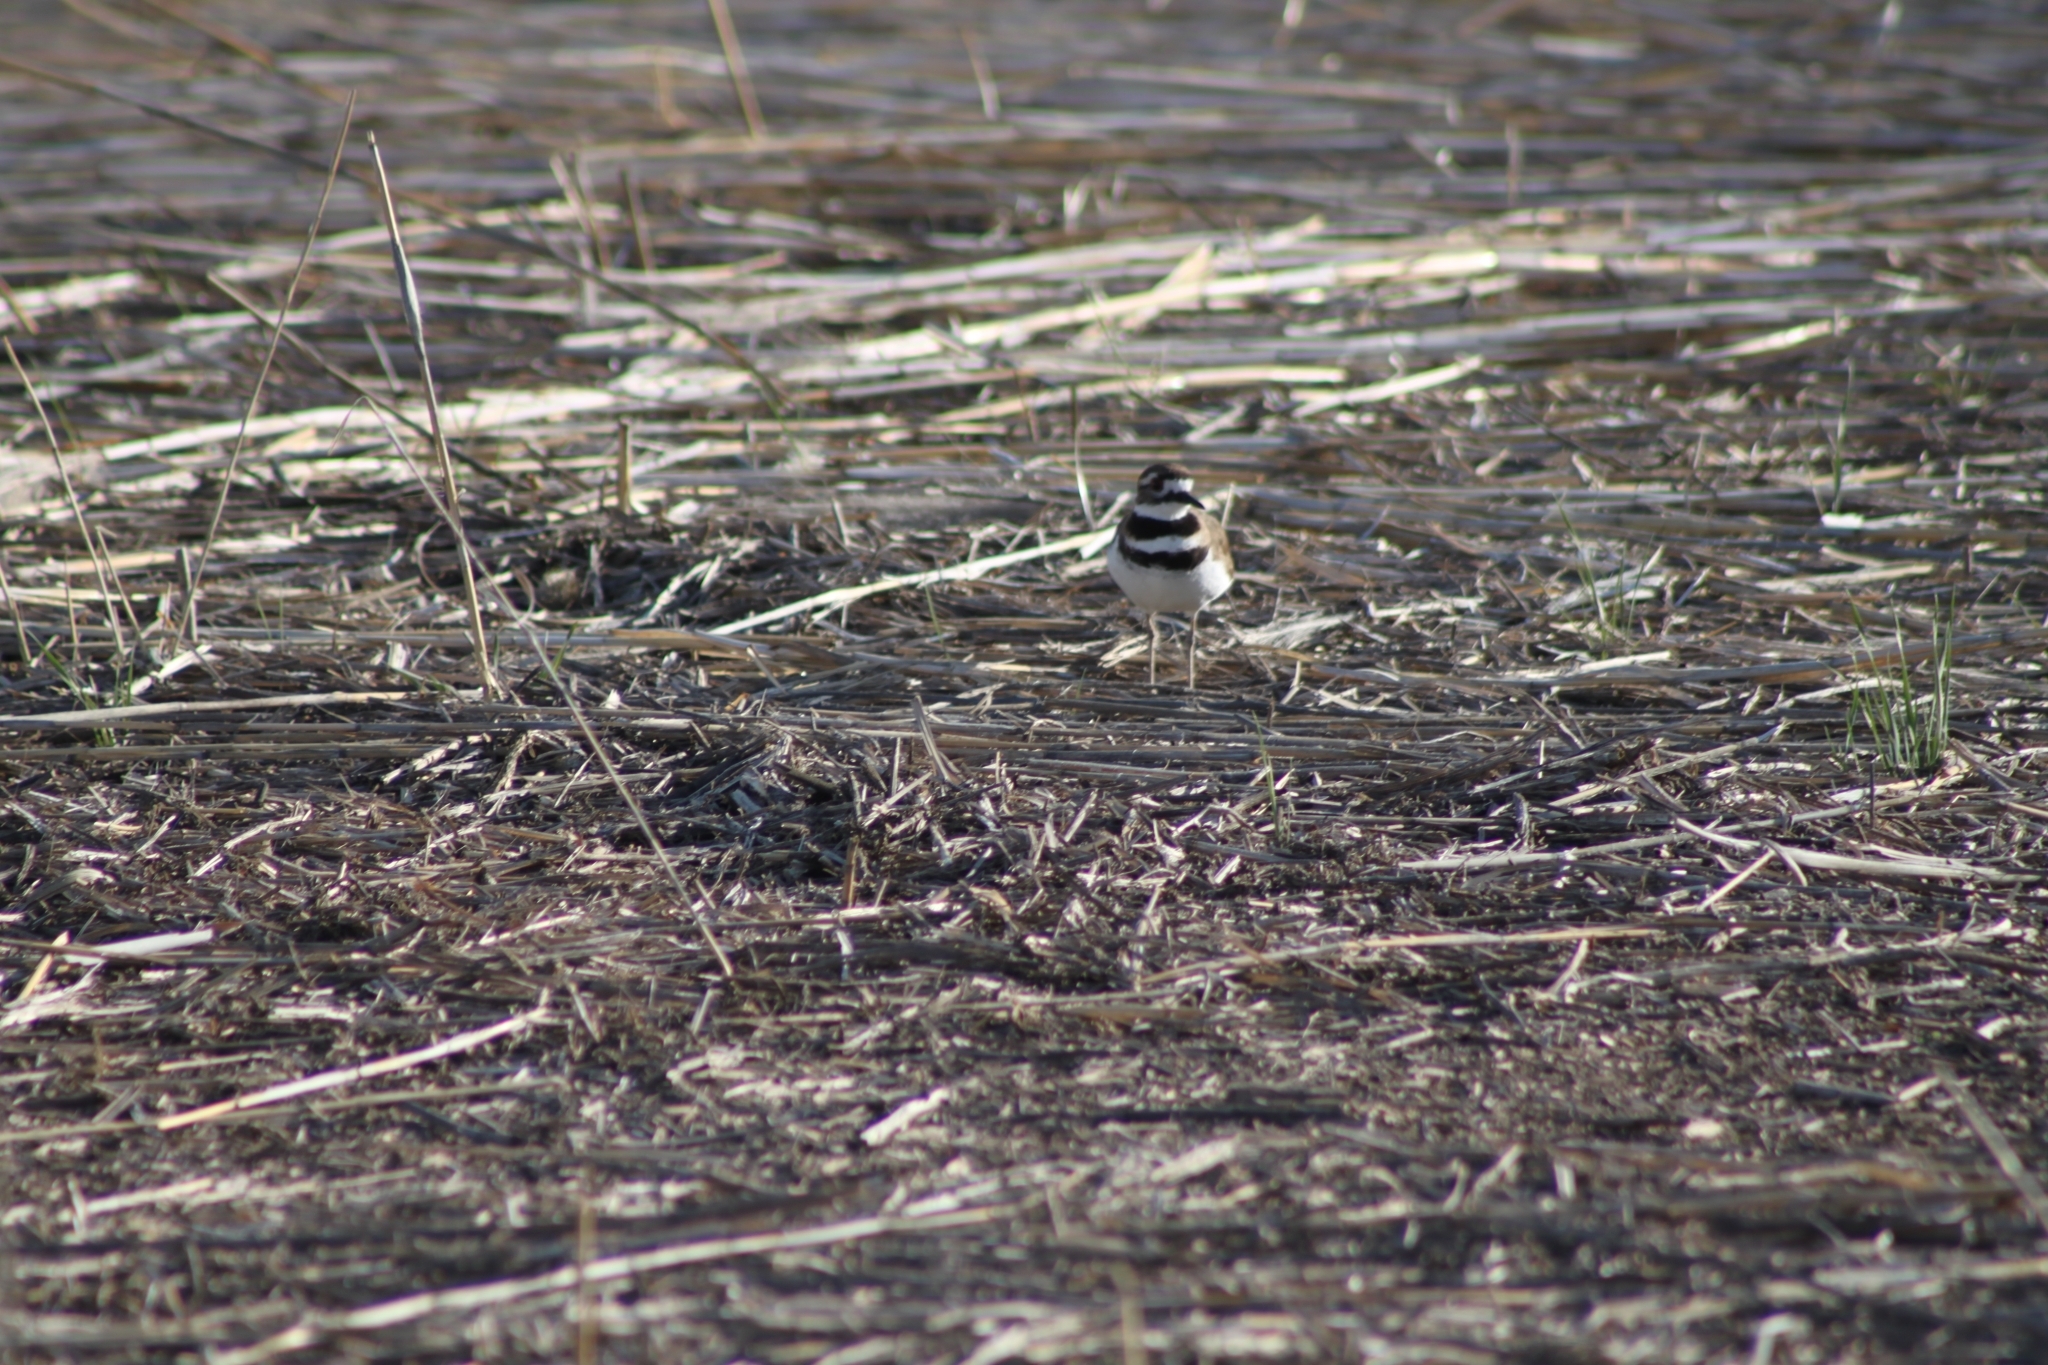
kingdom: Animalia
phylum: Chordata
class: Aves
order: Charadriiformes
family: Charadriidae
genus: Charadrius
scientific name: Charadrius vociferus
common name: Killdeer
